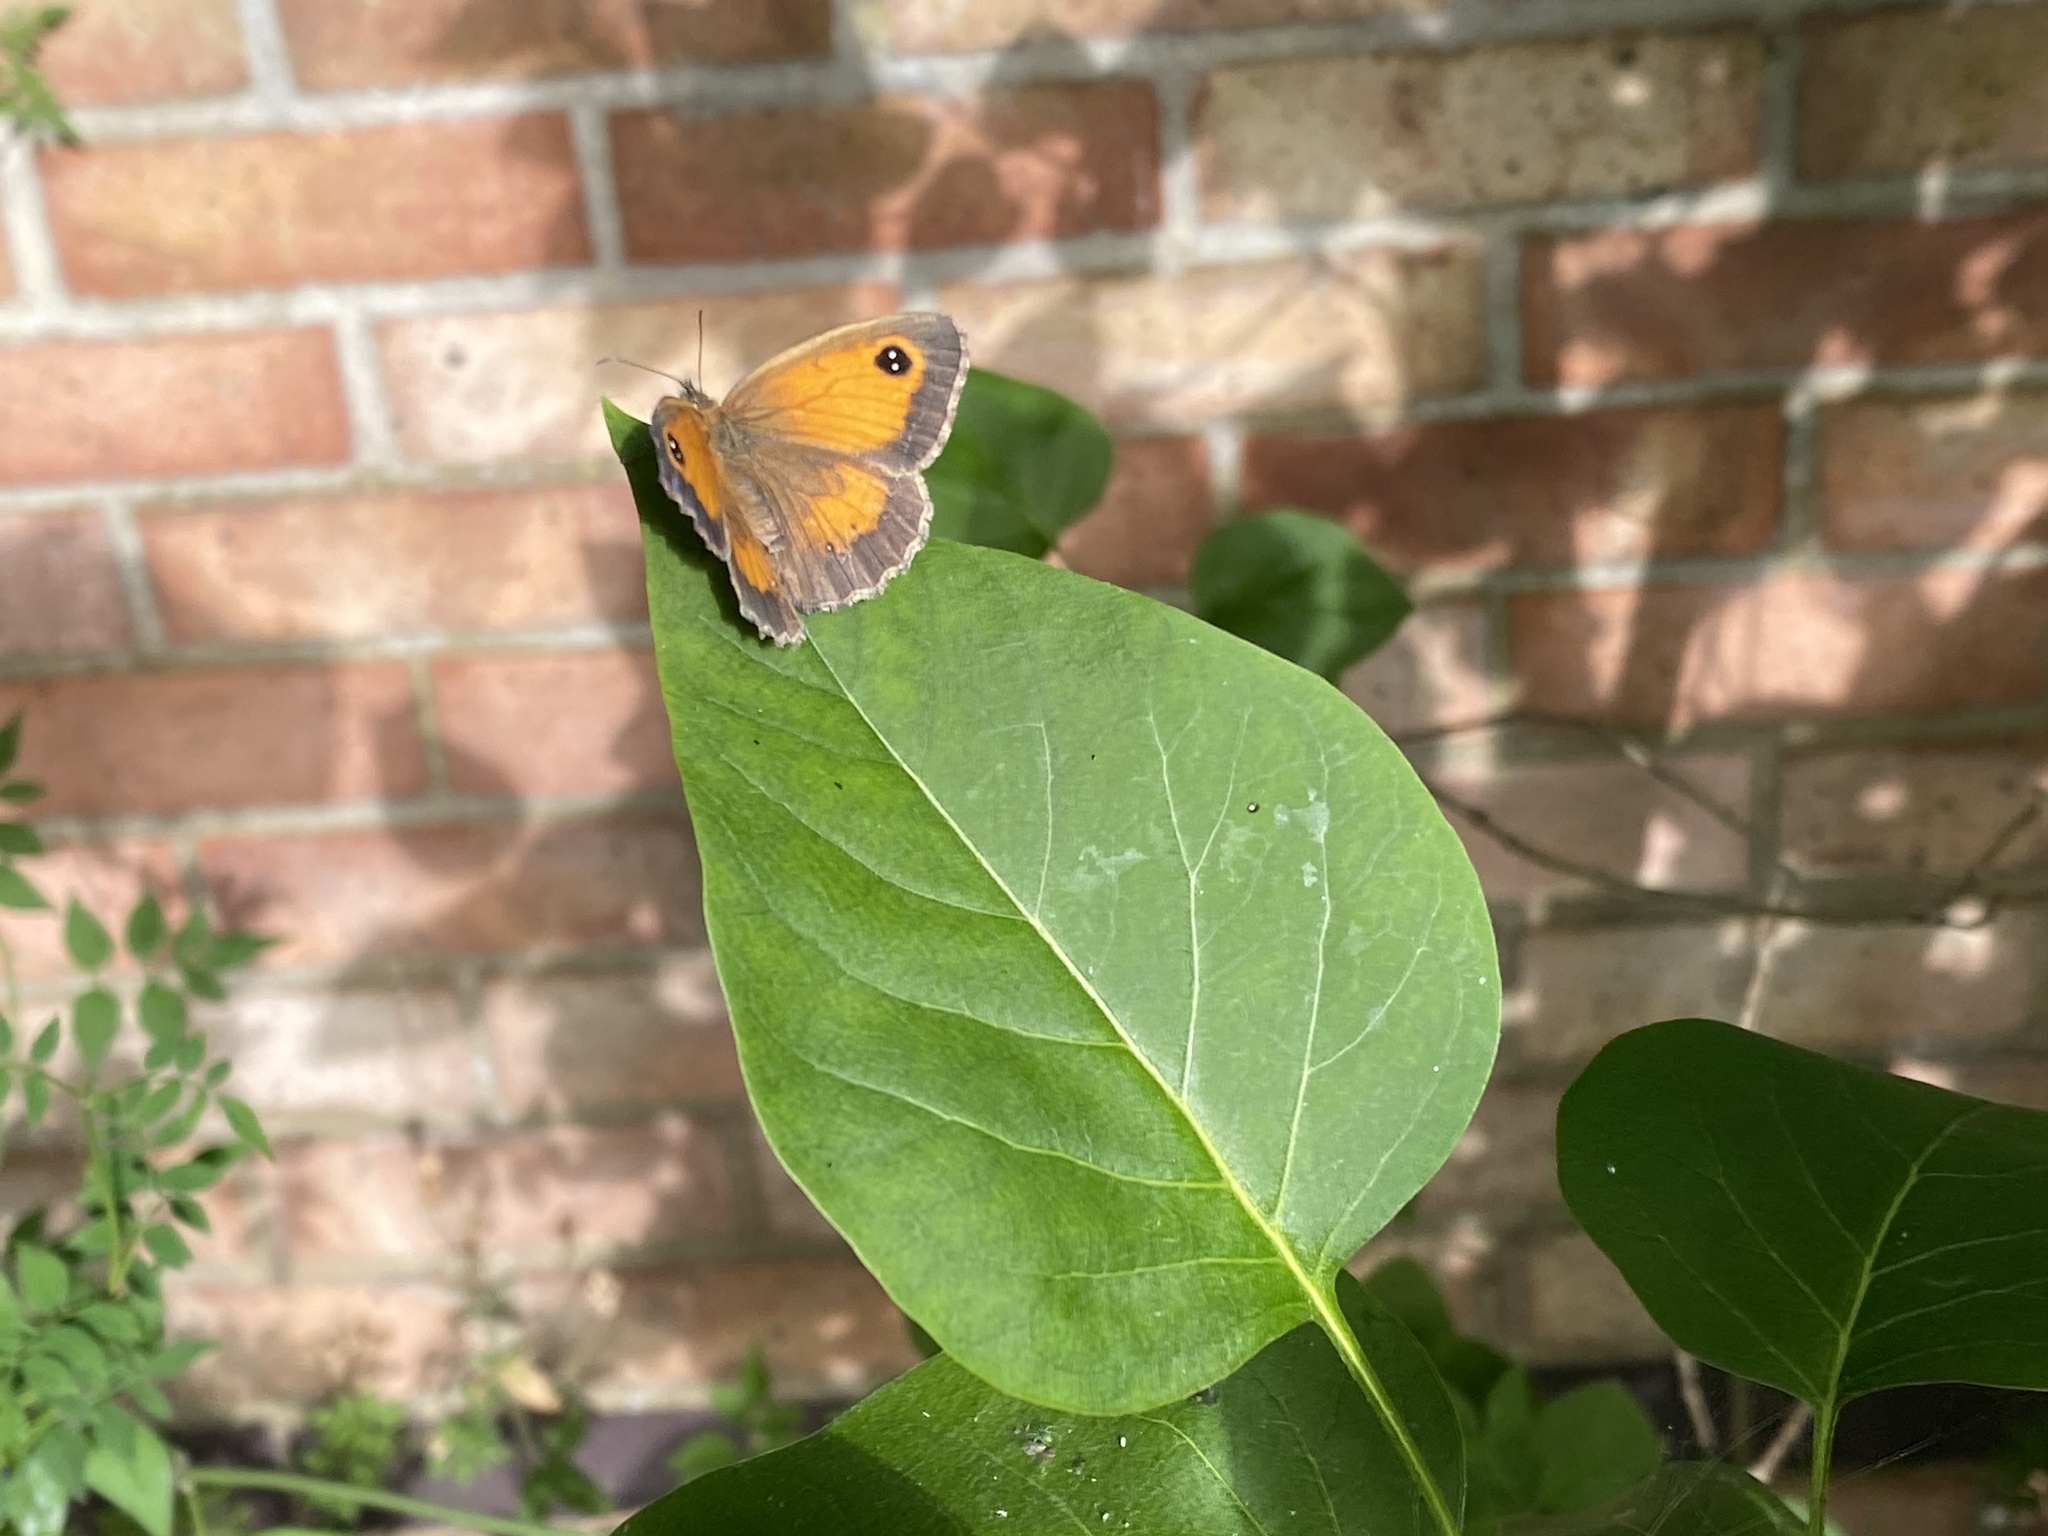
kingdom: Animalia
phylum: Arthropoda
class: Insecta
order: Lepidoptera
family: Nymphalidae
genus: Pyronia
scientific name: Pyronia tithonus
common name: Gatekeeper
